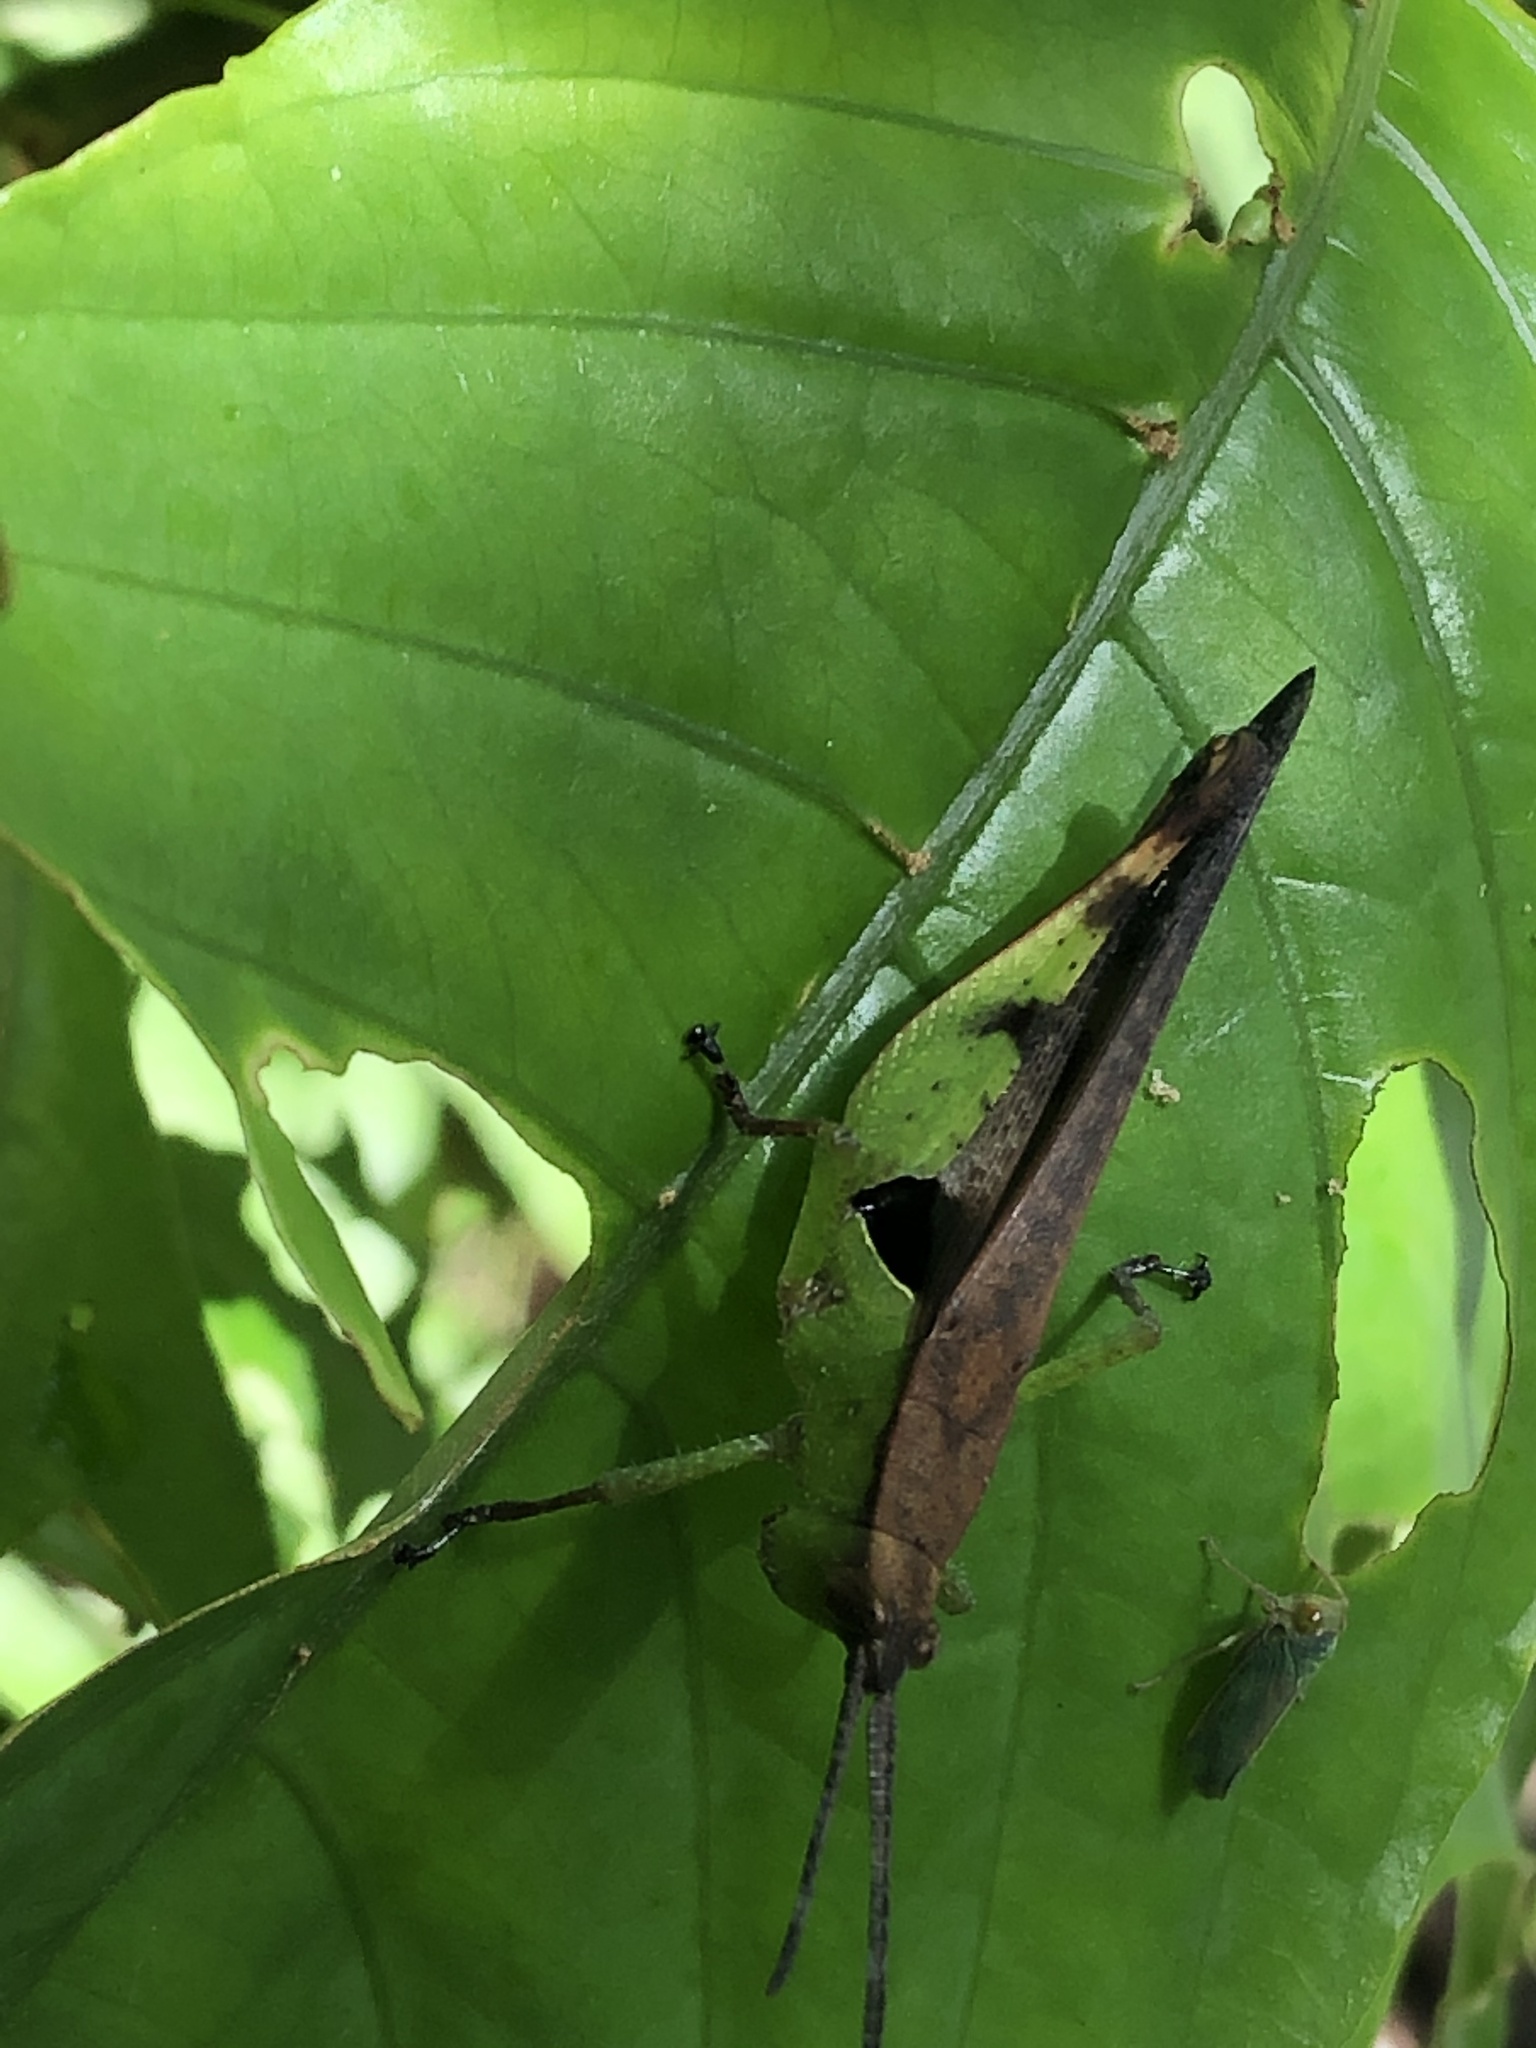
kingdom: Animalia
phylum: Arthropoda
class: Insecta
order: Orthoptera
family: Acrididae
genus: Xiphiola
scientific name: Xiphiola cyanoptera
